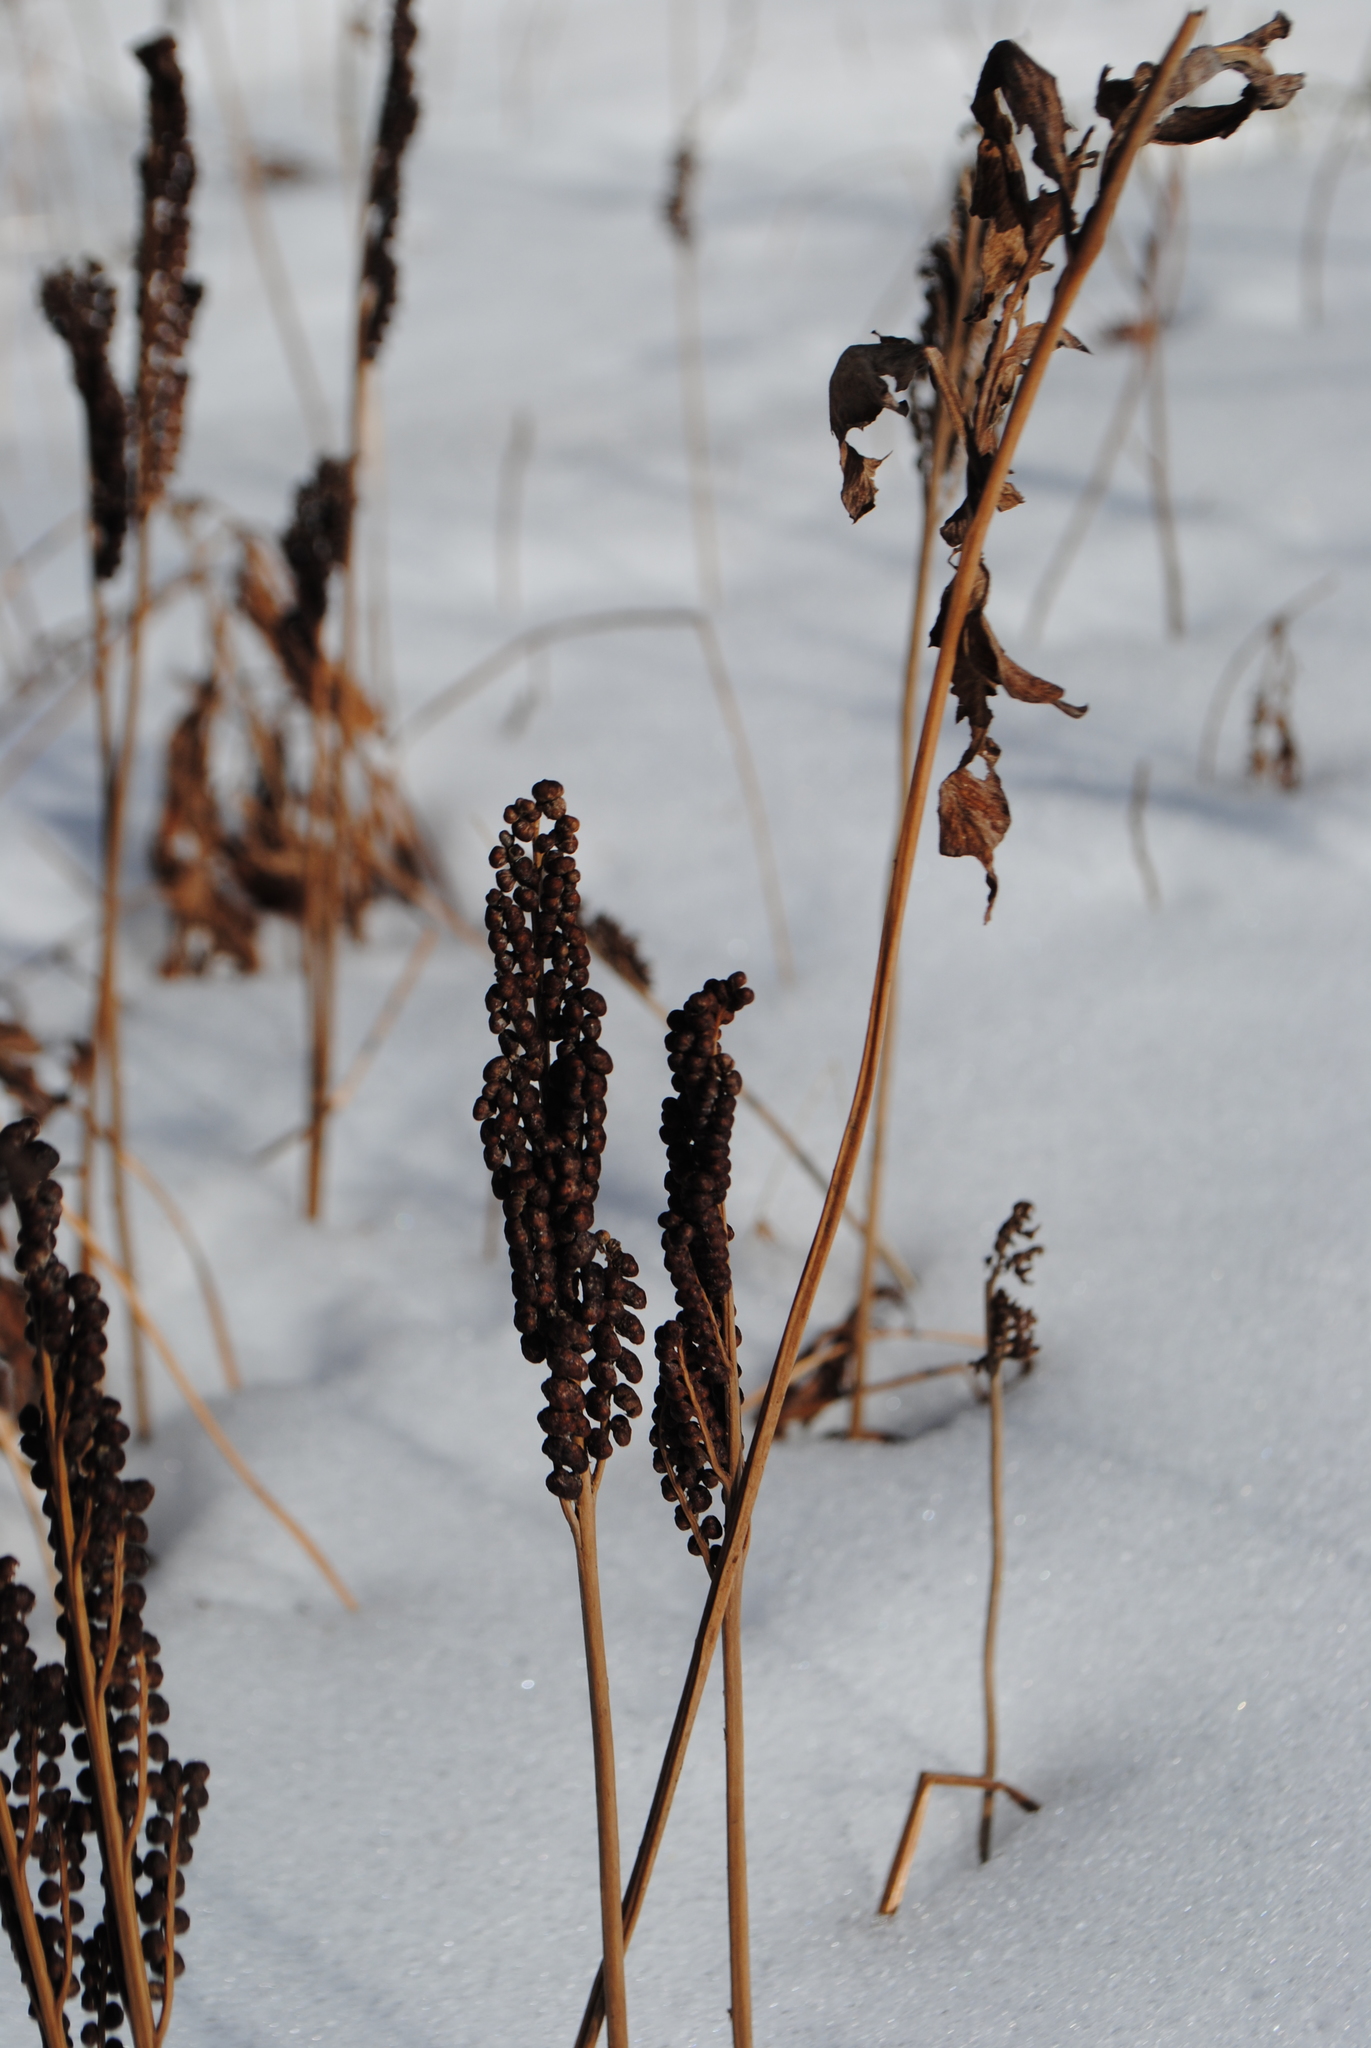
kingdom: Plantae
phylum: Tracheophyta
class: Polypodiopsida
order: Polypodiales
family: Onocleaceae
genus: Onoclea
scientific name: Onoclea sensibilis
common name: Sensitive fern
